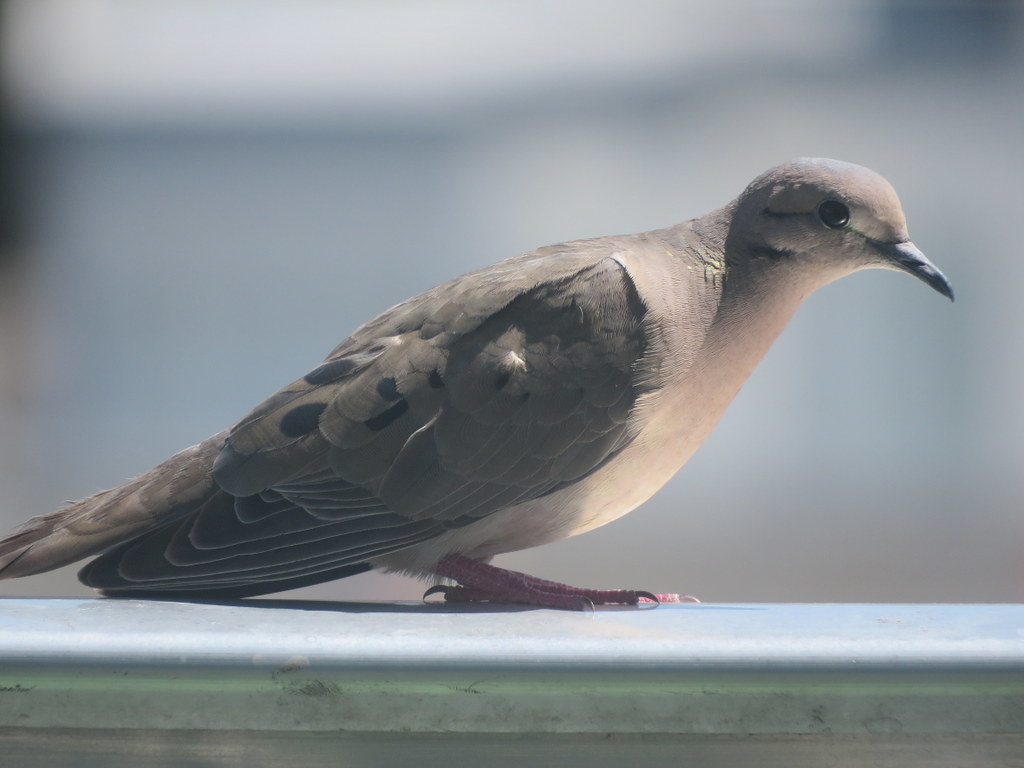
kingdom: Animalia
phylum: Chordata
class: Aves
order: Columbiformes
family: Columbidae
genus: Zenaida
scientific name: Zenaida auriculata
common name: Eared dove
